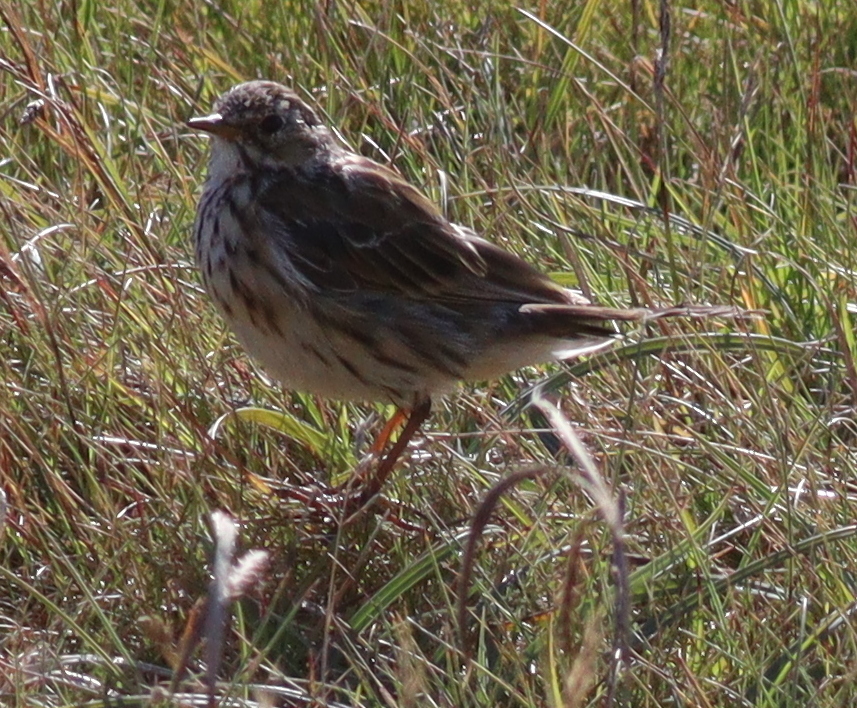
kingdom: Animalia
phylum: Chordata
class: Aves
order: Passeriformes
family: Motacillidae
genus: Anthus
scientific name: Anthus pratensis
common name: Meadow pipit
